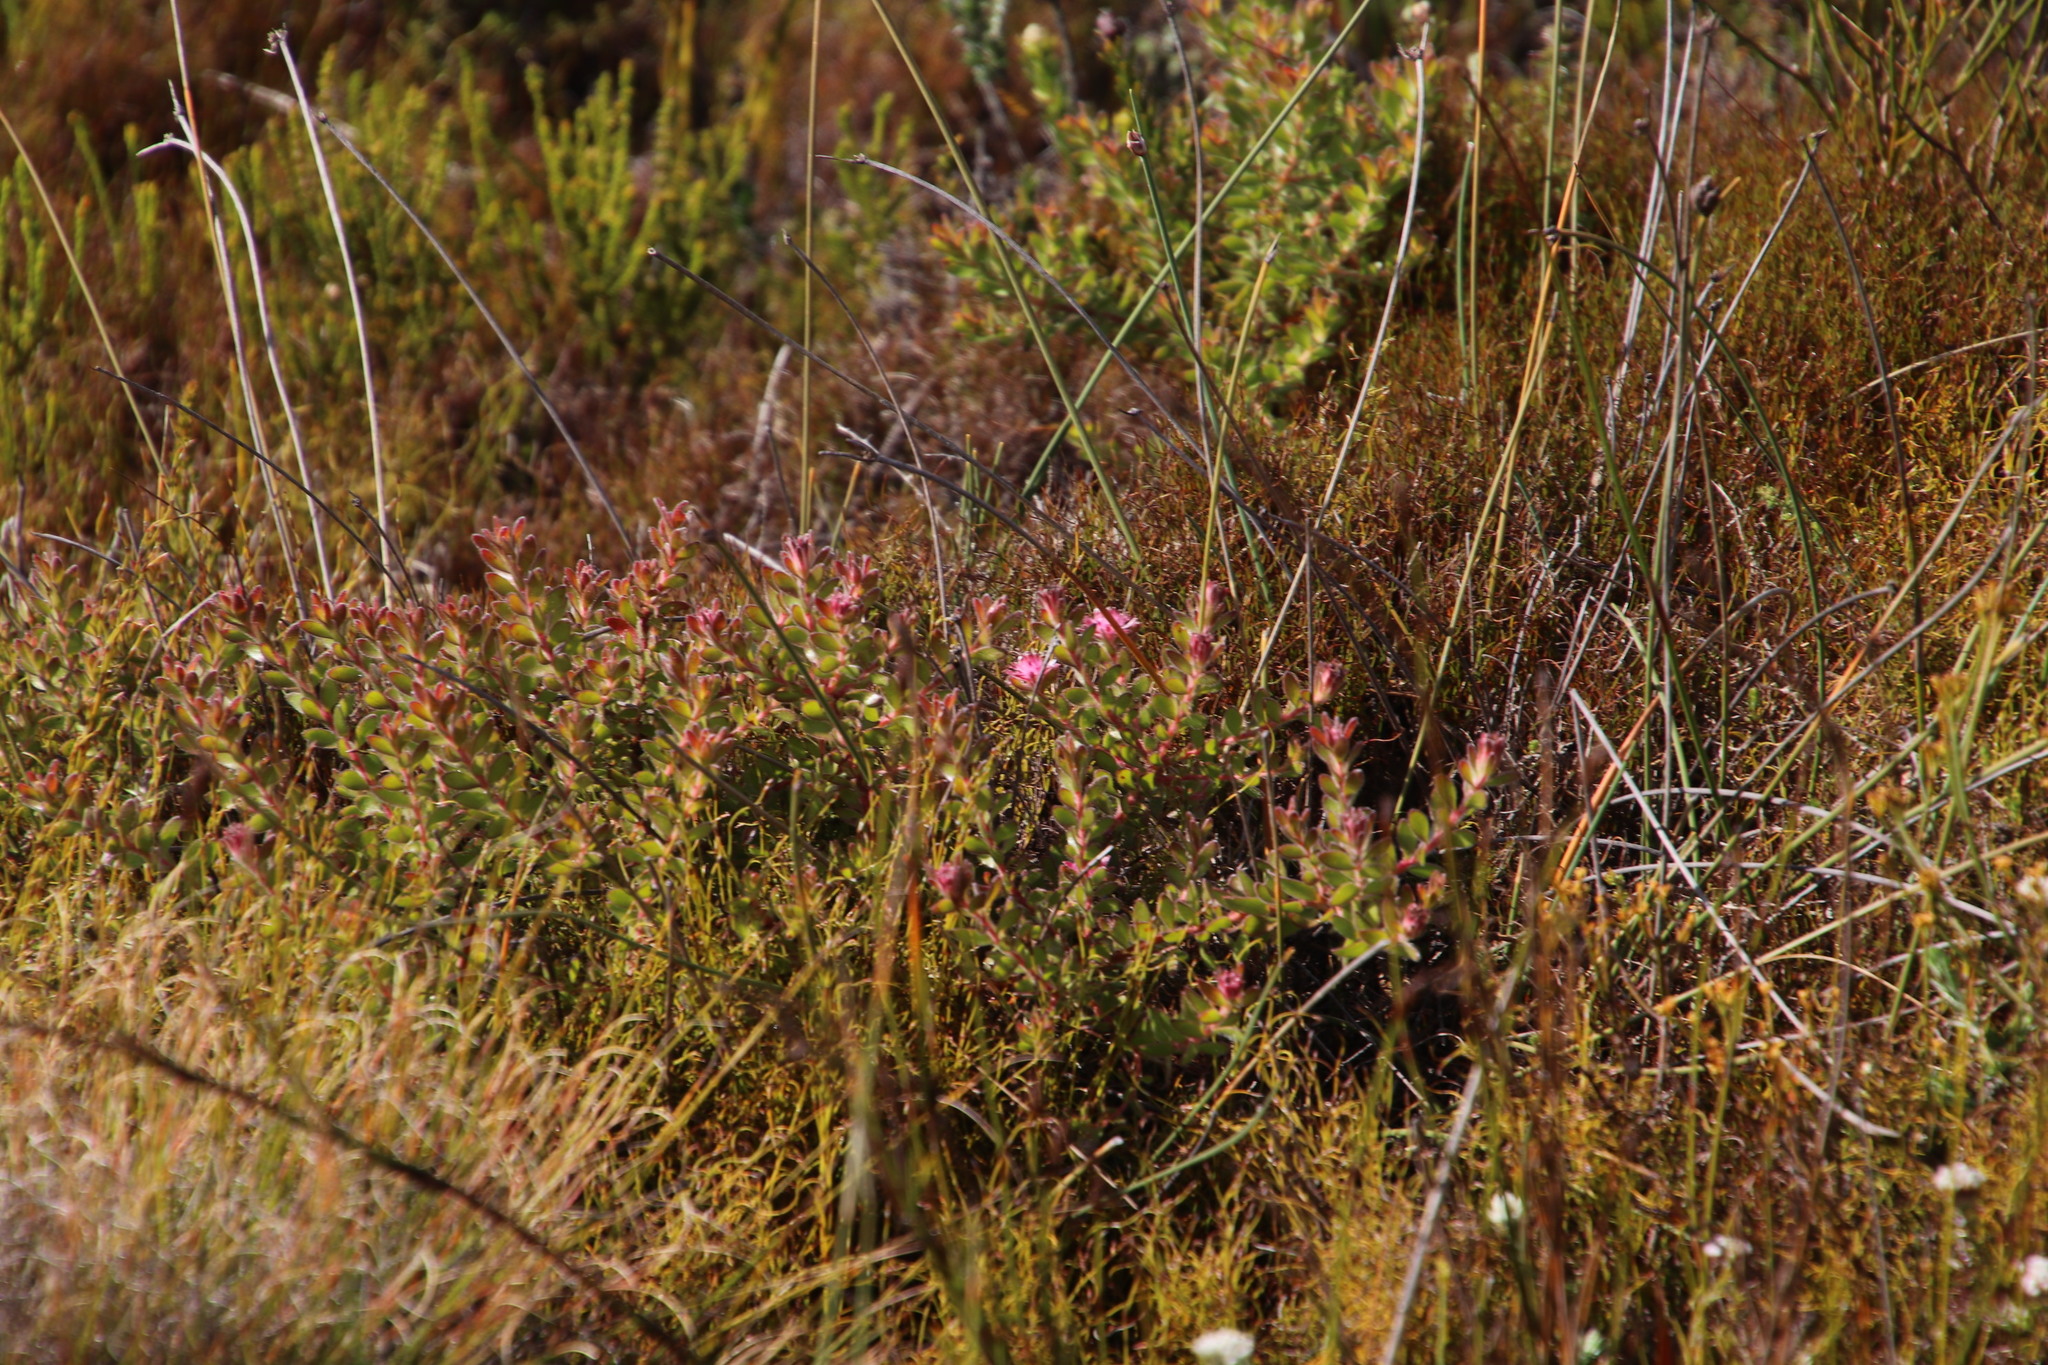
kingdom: Plantae
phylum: Tracheophyta
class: Magnoliopsida
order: Proteales
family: Proteaceae
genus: Diastella
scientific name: Diastella divaricata
